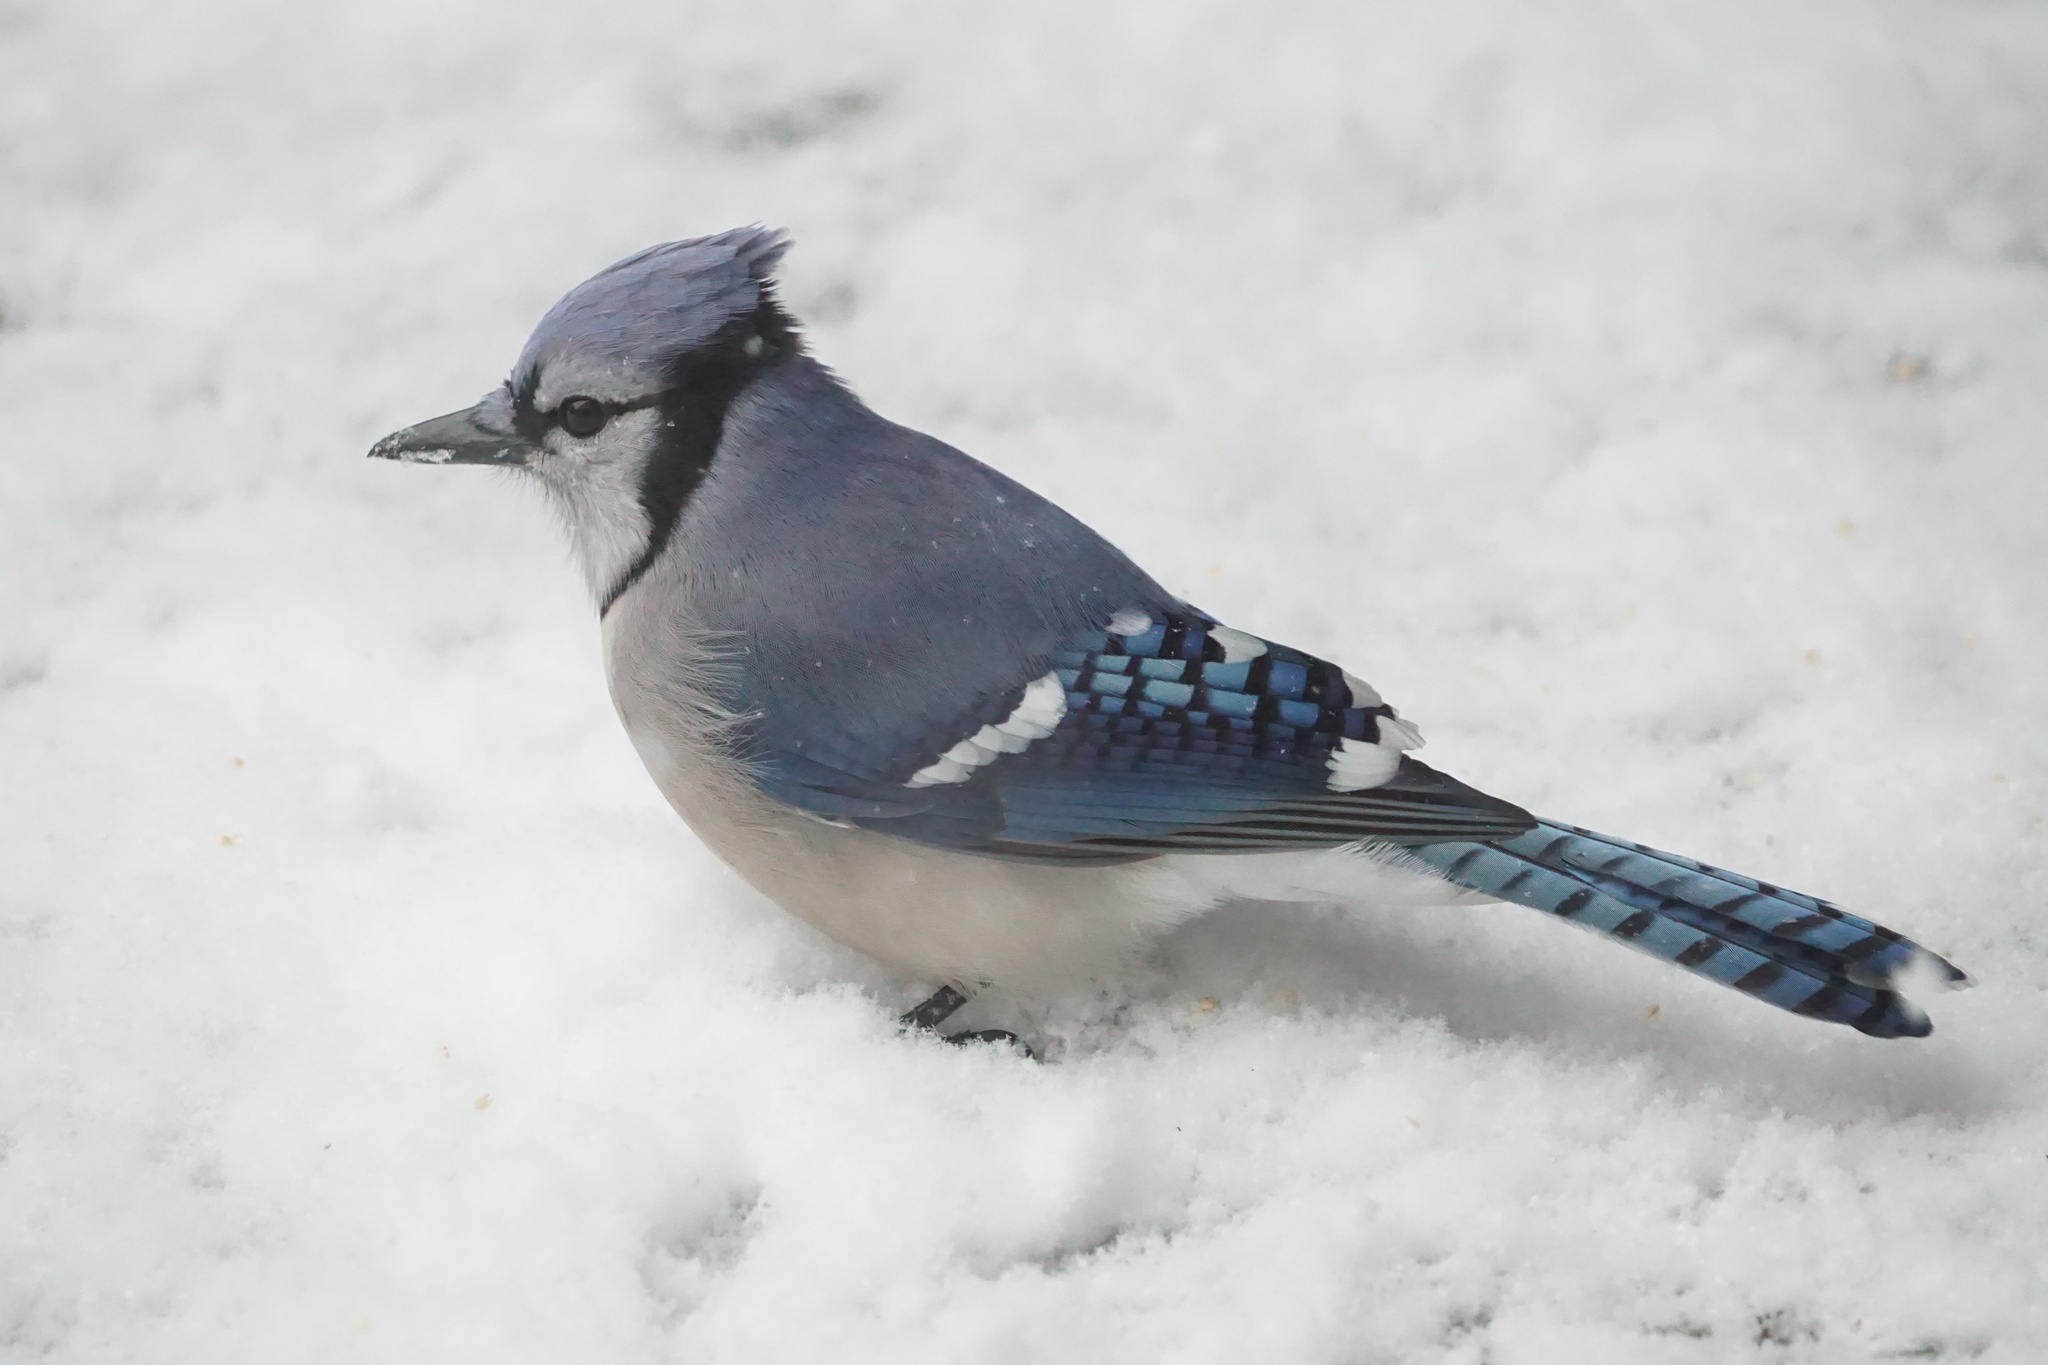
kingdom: Animalia
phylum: Chordata
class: Aves
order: Passeriformes
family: Corvidae
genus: Cyanocitta
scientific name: Cyanocitta cristata
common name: Blue jay
